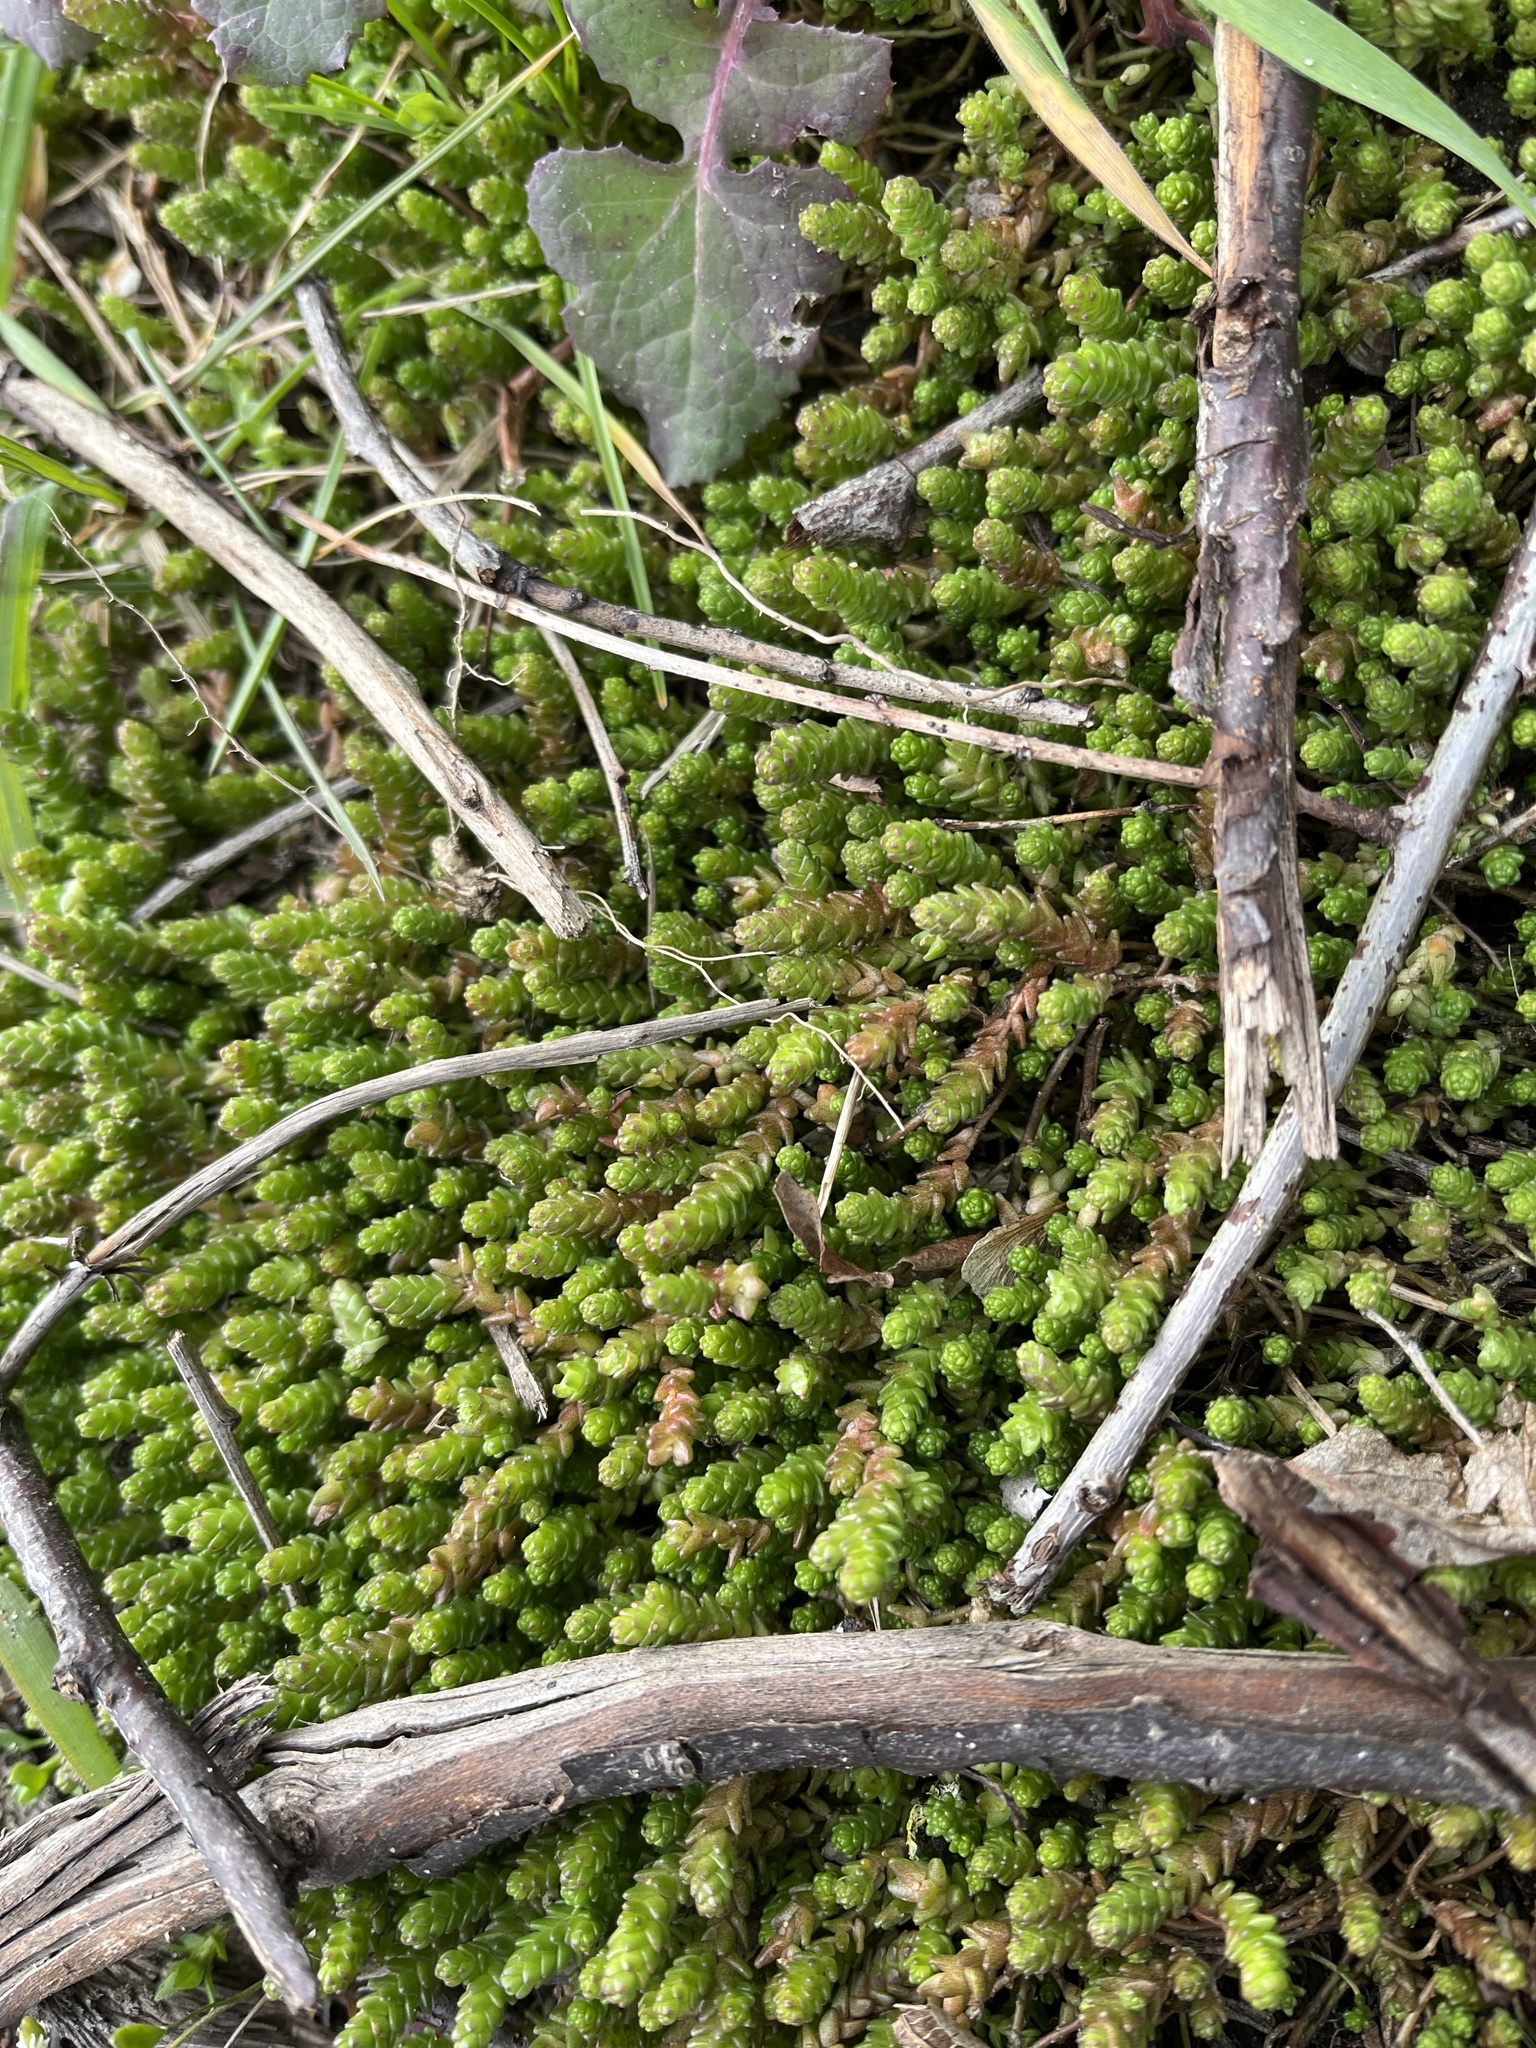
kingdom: Plantae
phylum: Tracheophyta
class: Magnoliopsida
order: Saxifragales
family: Crassulaceae
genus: Sedum
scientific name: Sedum acre
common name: Biting stonecrop
